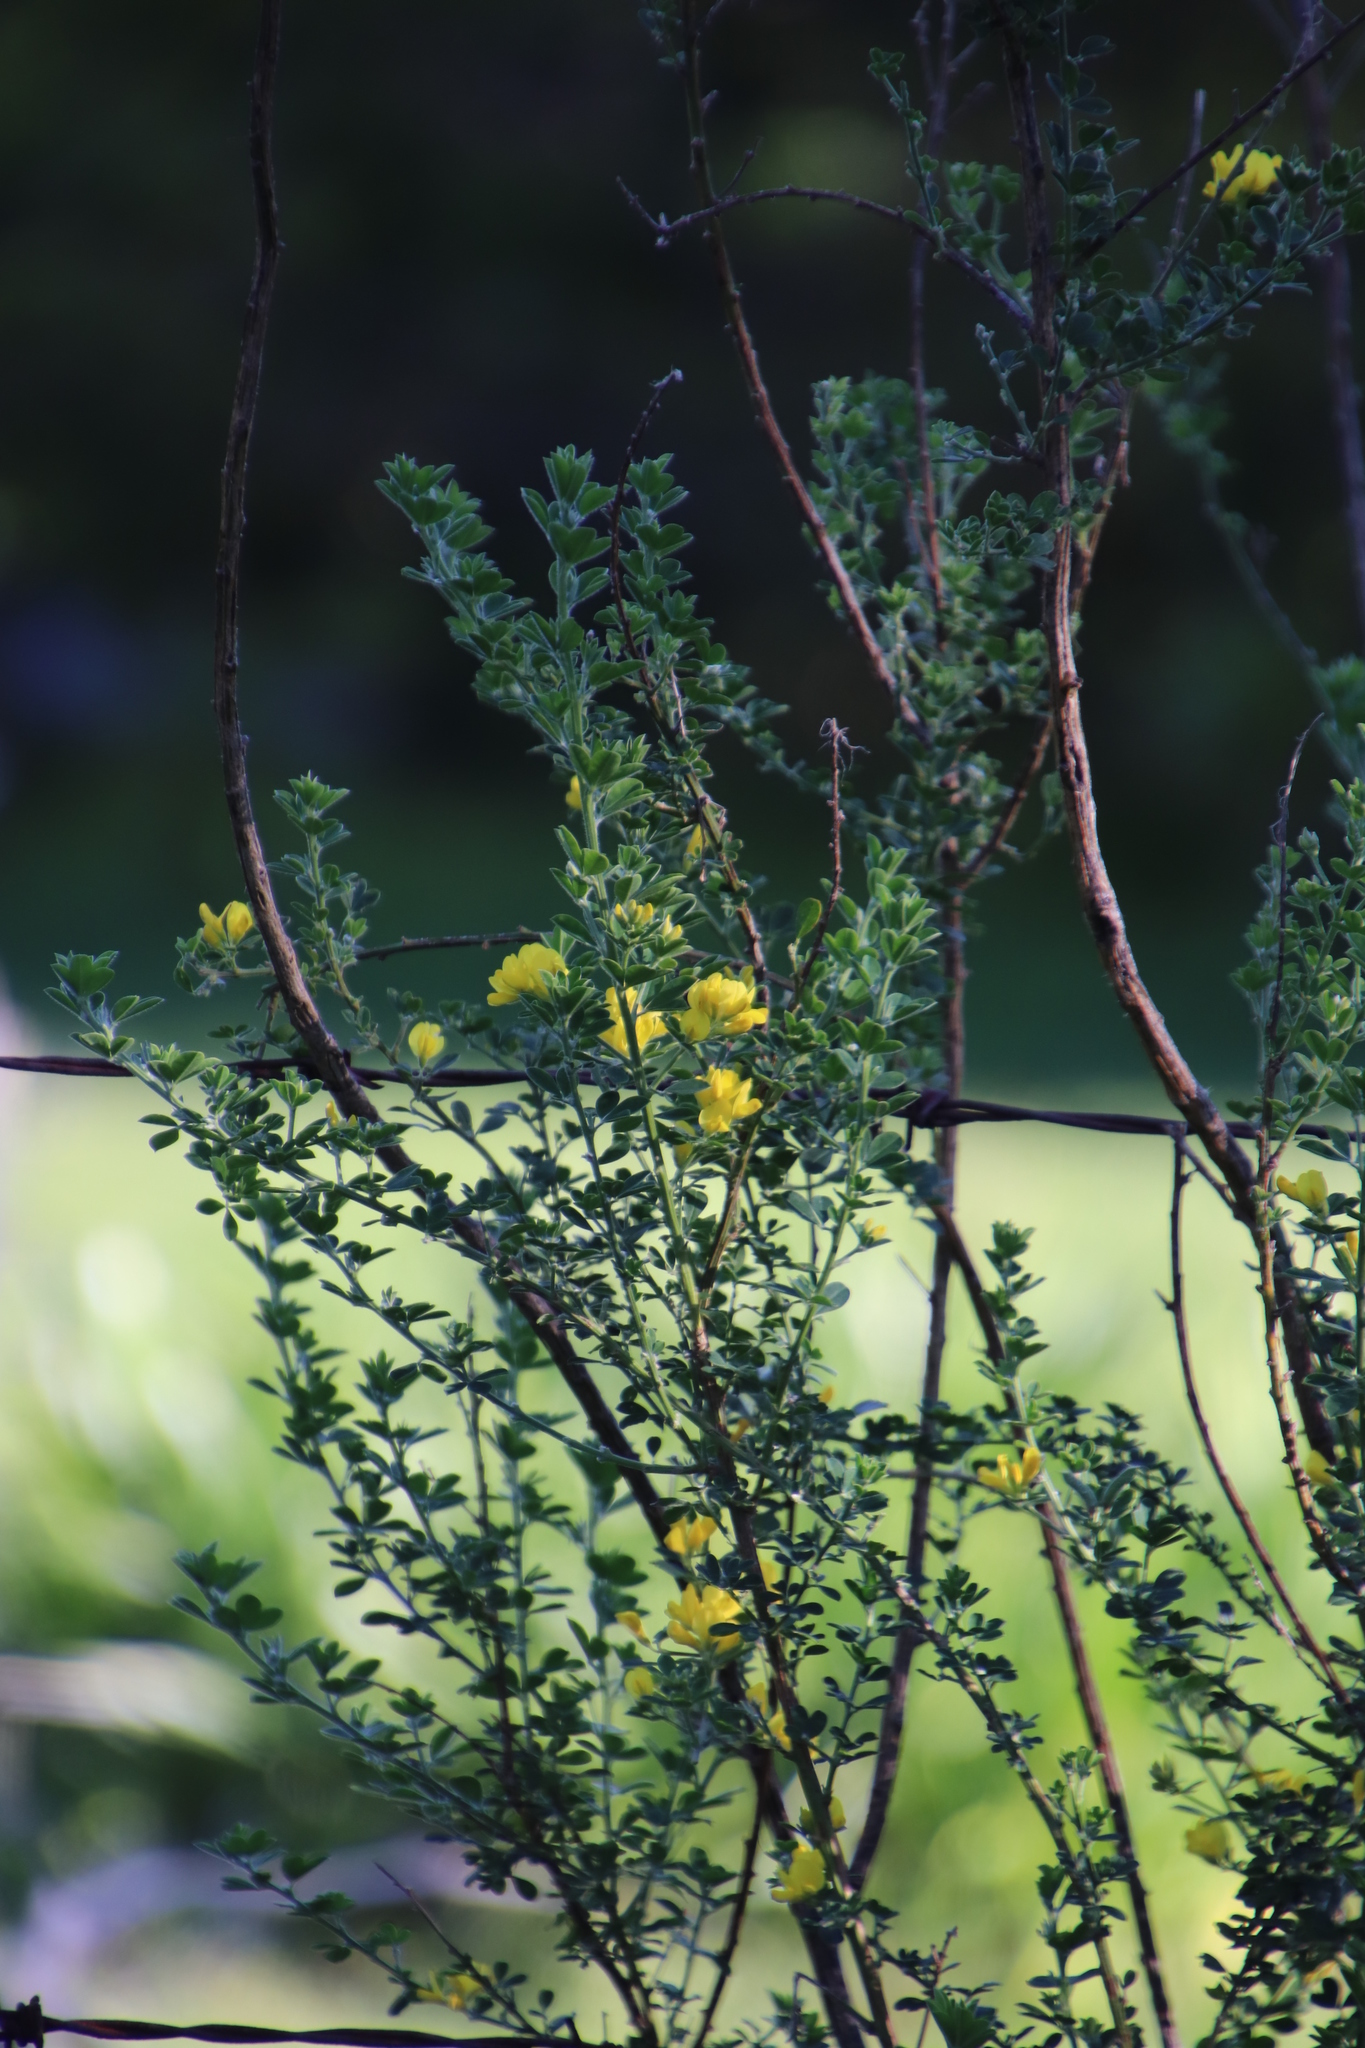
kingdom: Plantae
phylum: Tracheophyta
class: Magnoliopsida
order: Fabales
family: Fabaceae
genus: Genista
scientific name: Genista monspessulana
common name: Montpellier broom
